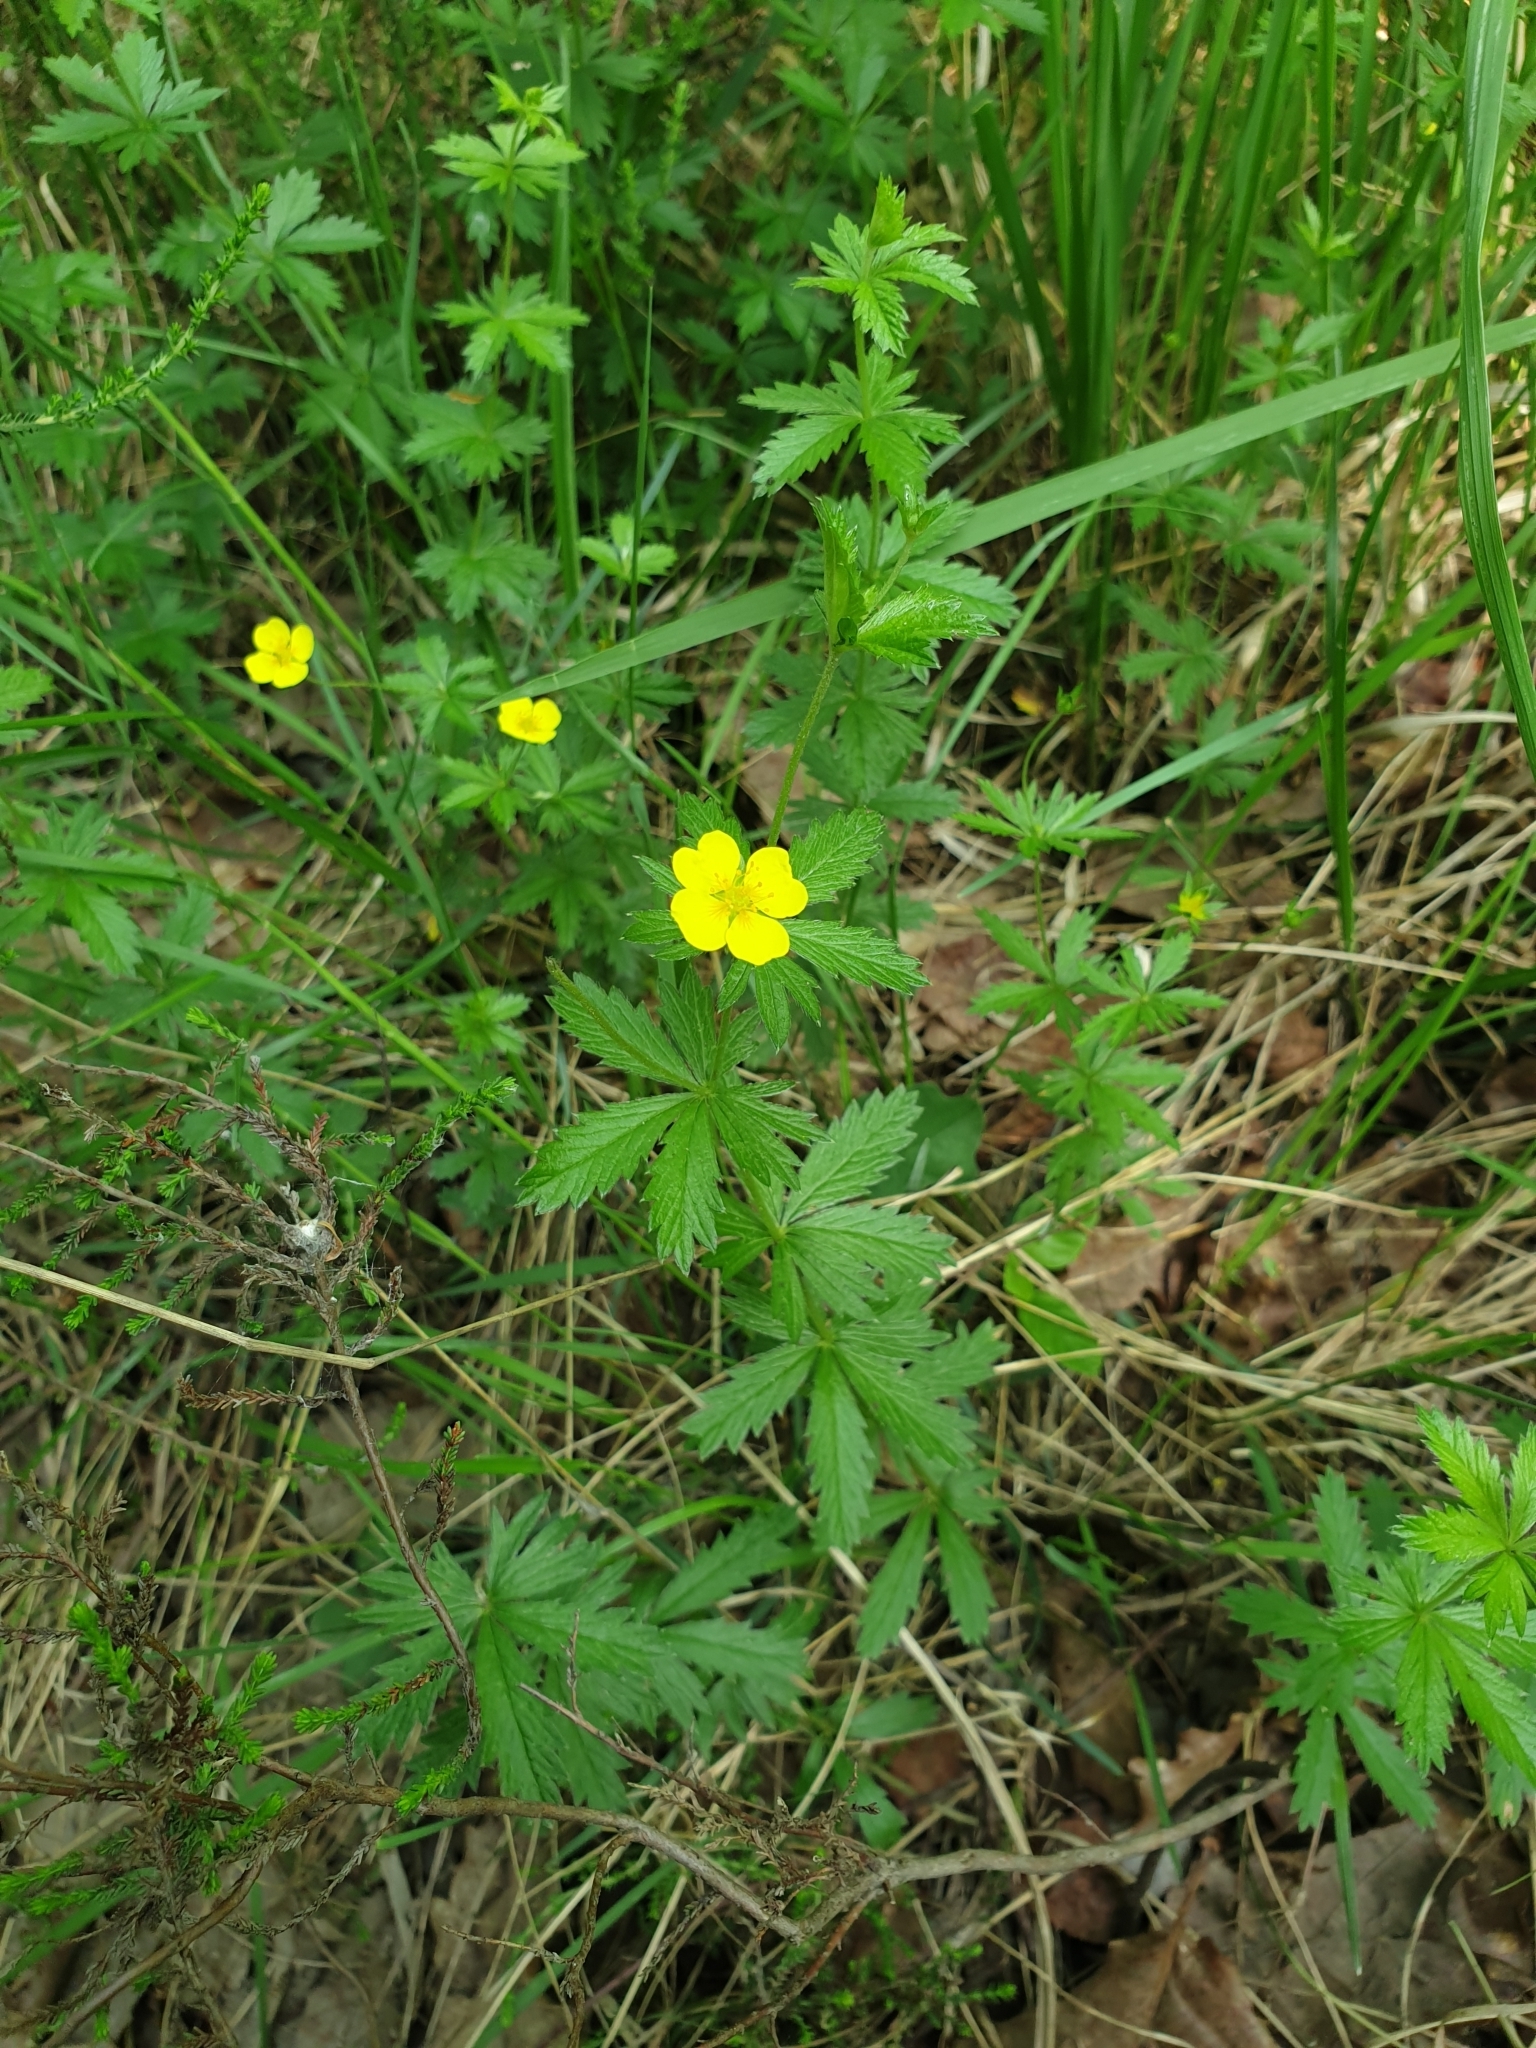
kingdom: Plantae
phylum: Tracheophyta
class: Magnoliopsida
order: Rosales
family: Rosaceae
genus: Potentilla
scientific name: Potentilla erecta
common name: Tormentil
